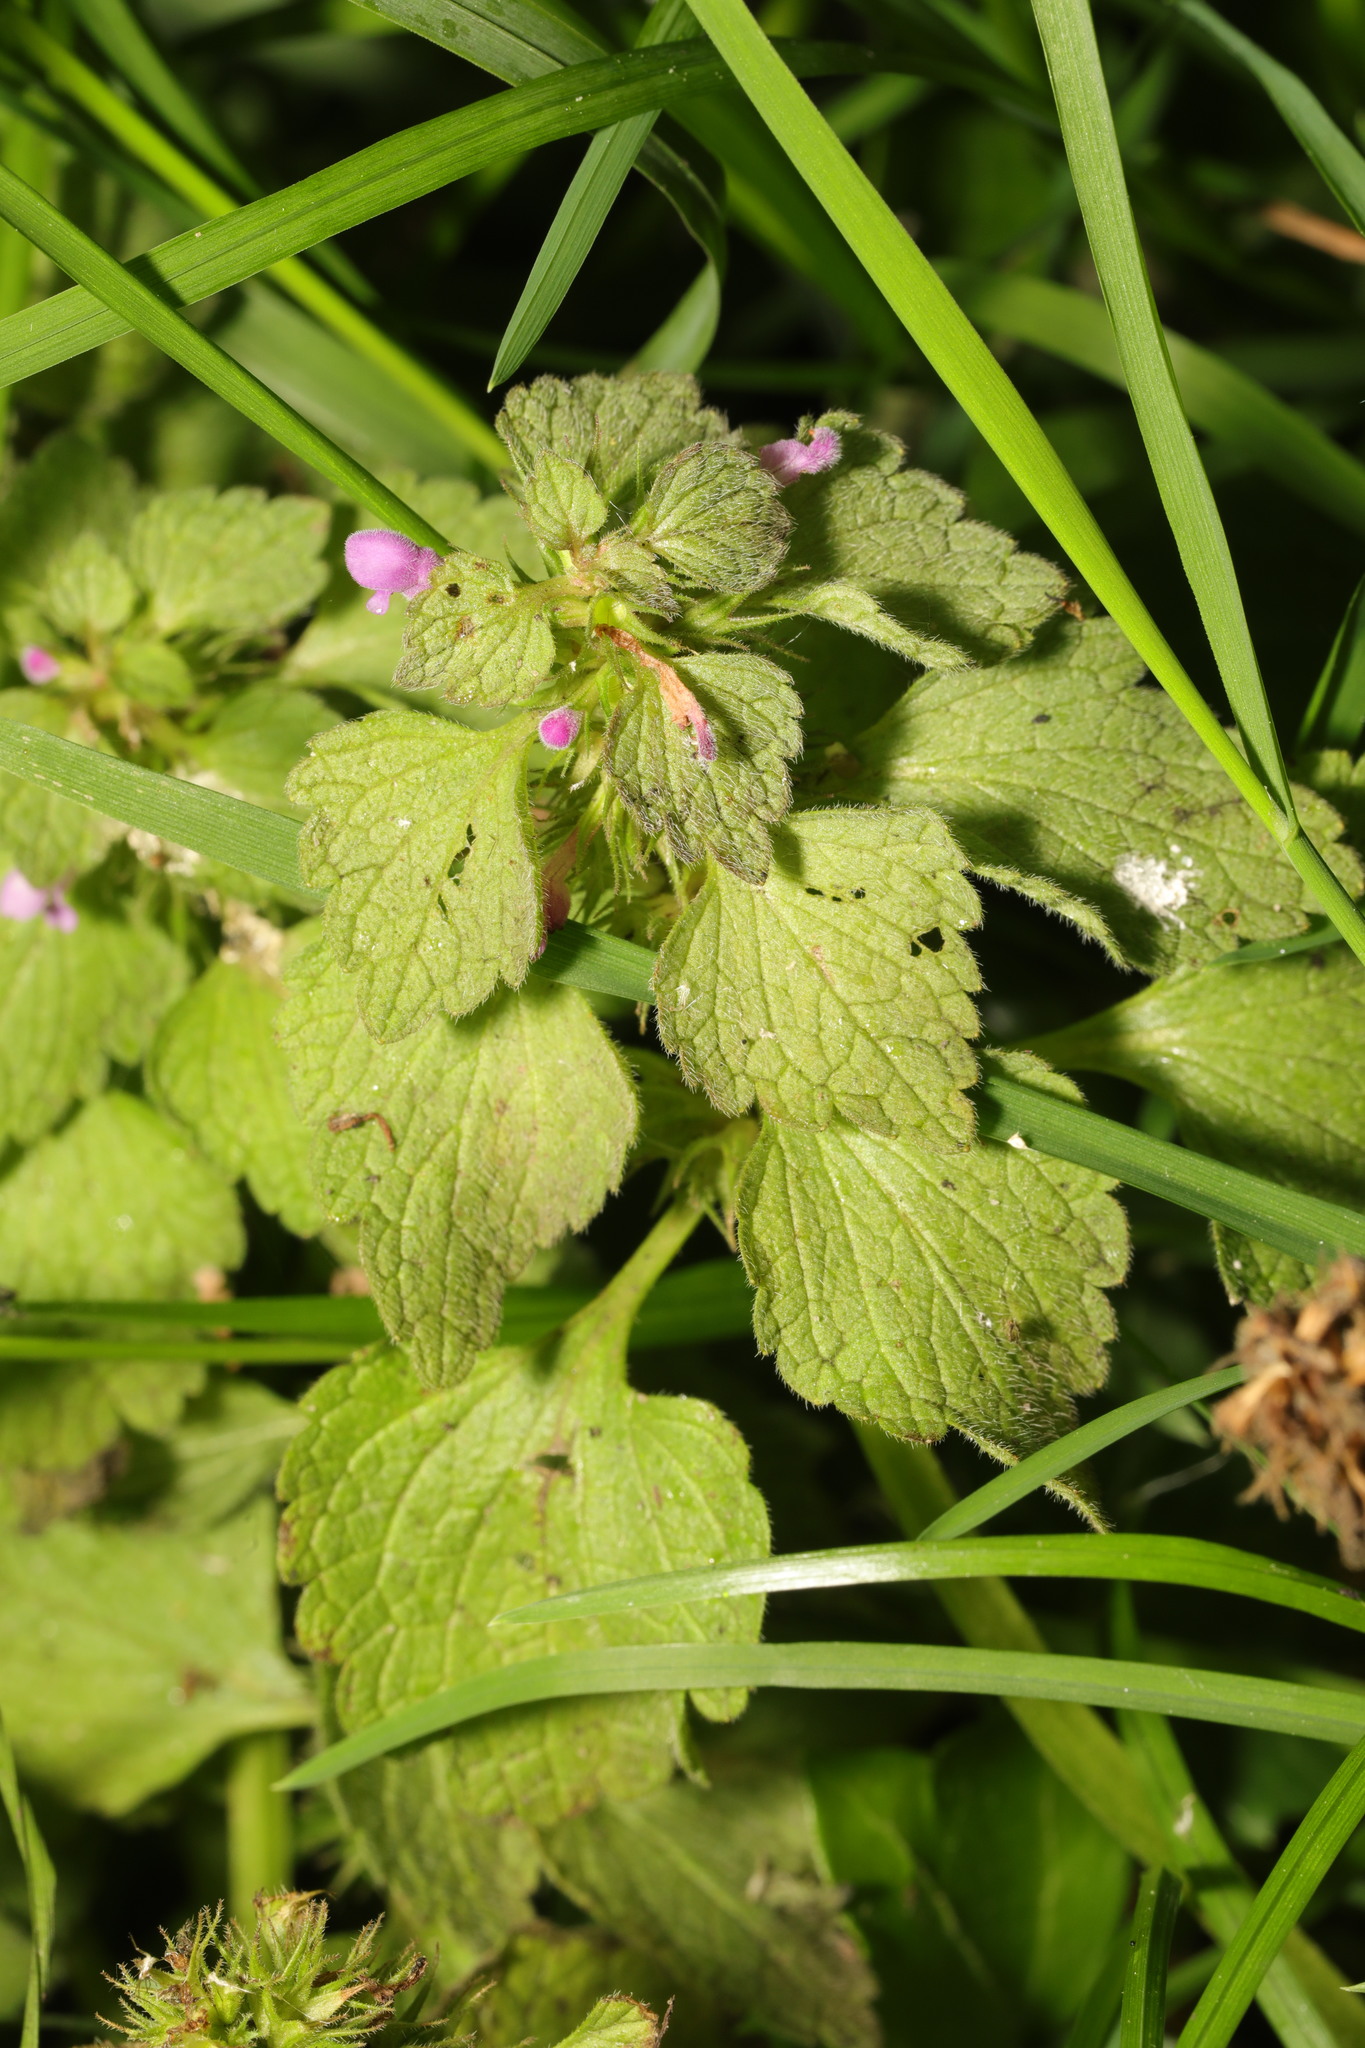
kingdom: Plantae
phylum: Tracheophyta
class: Magnoliopsida
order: Lamiales
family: Lamiaceae
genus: Lamium
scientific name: Lamium purpureum
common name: Red dead-nettle
